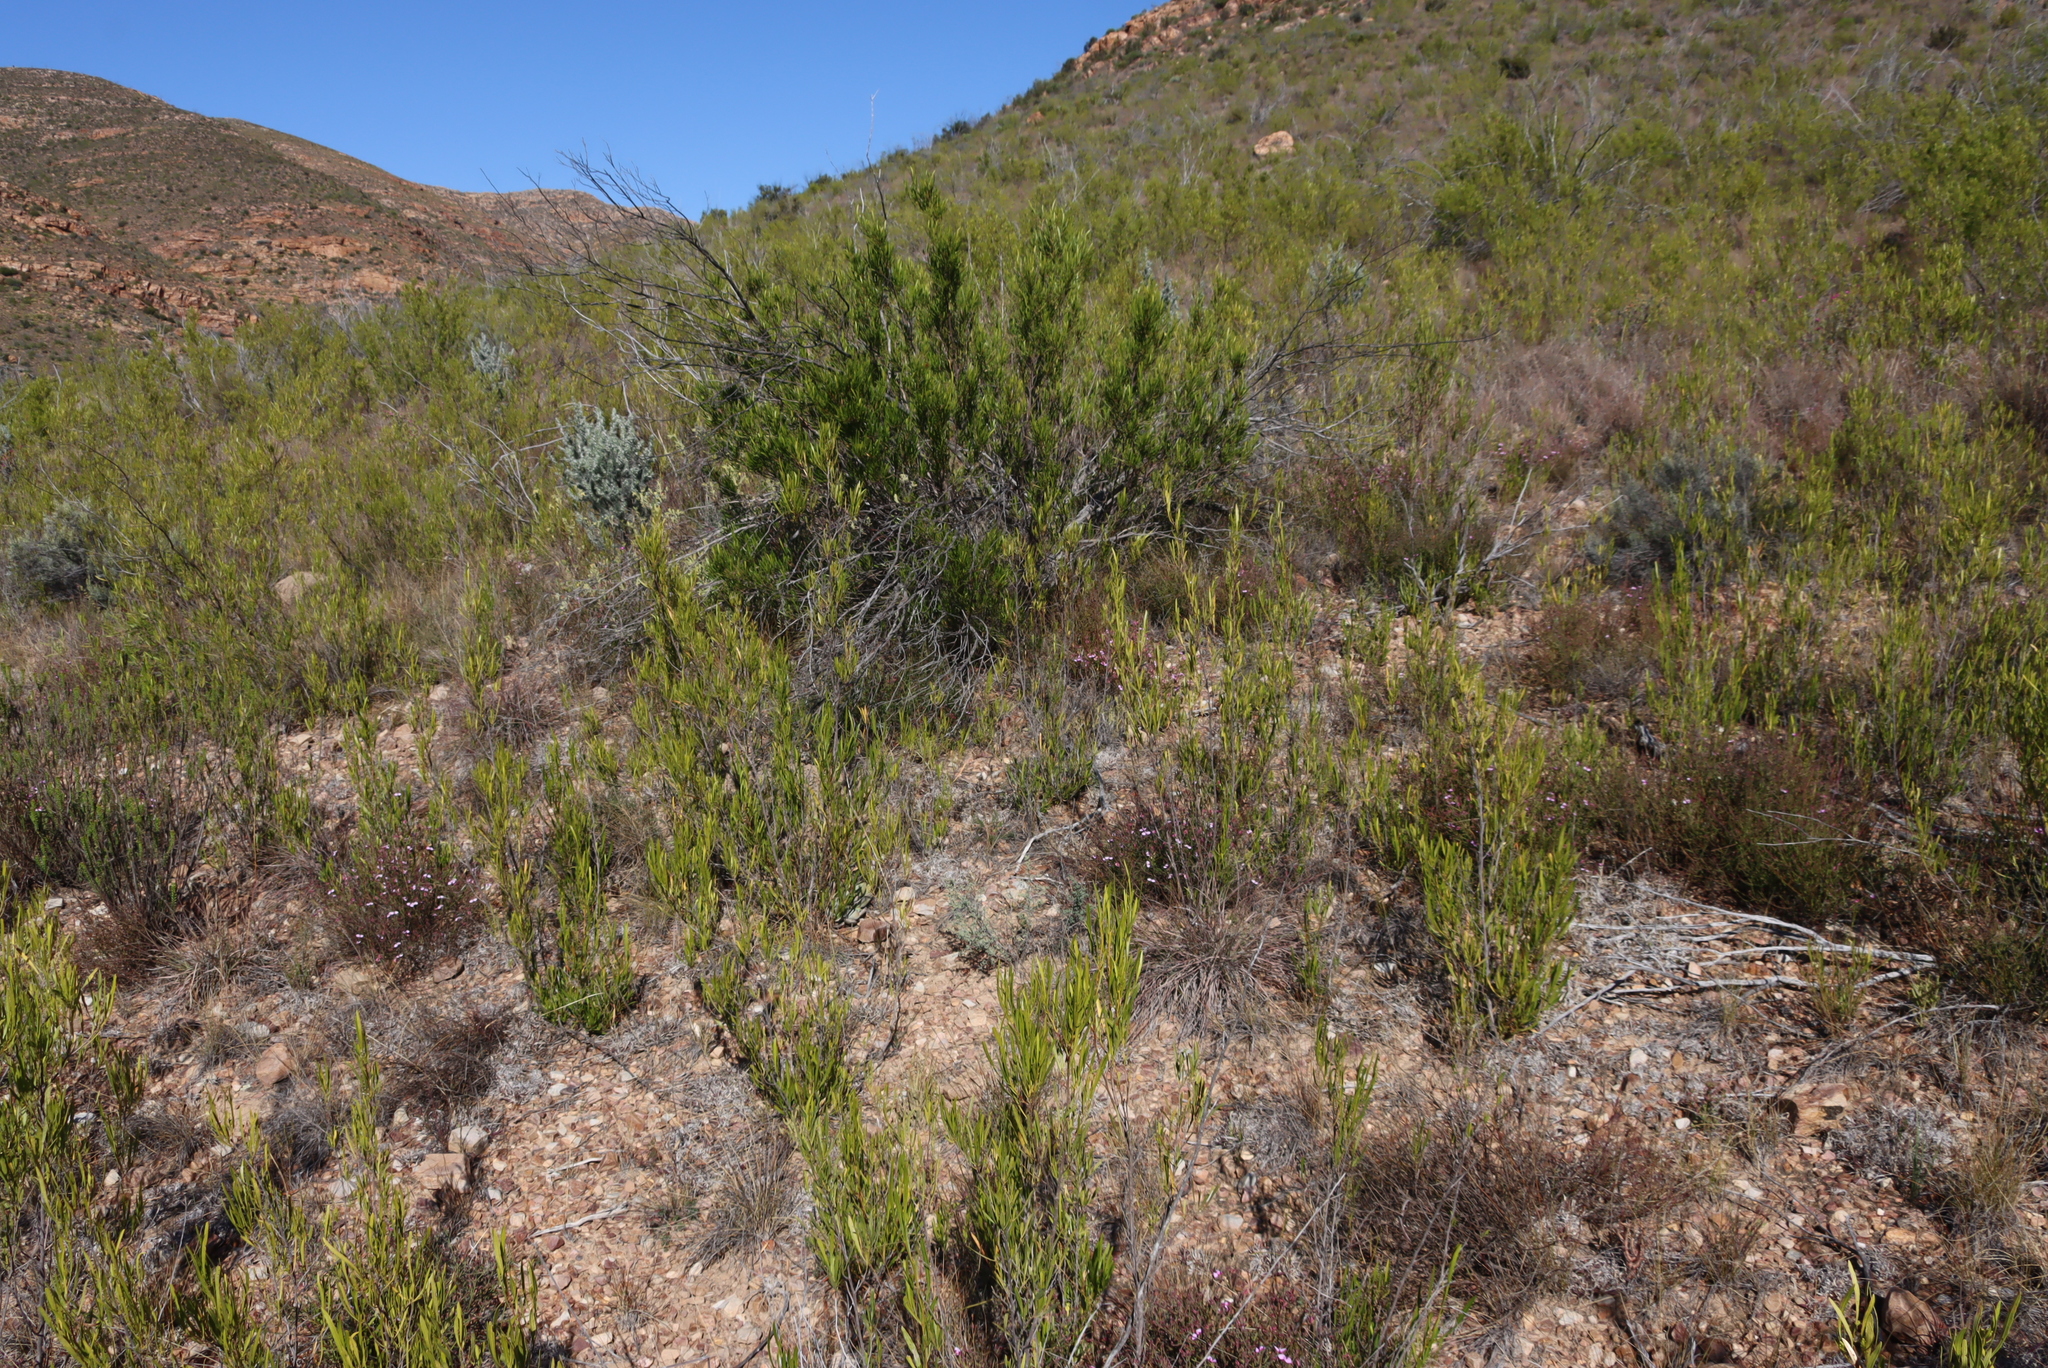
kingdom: Plantae
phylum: Tracheophyta
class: Magnoliopsida
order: Sapindales
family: Sapindaceae
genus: Dodonaea
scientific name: Dodonaea viscosa
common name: Hopbush
